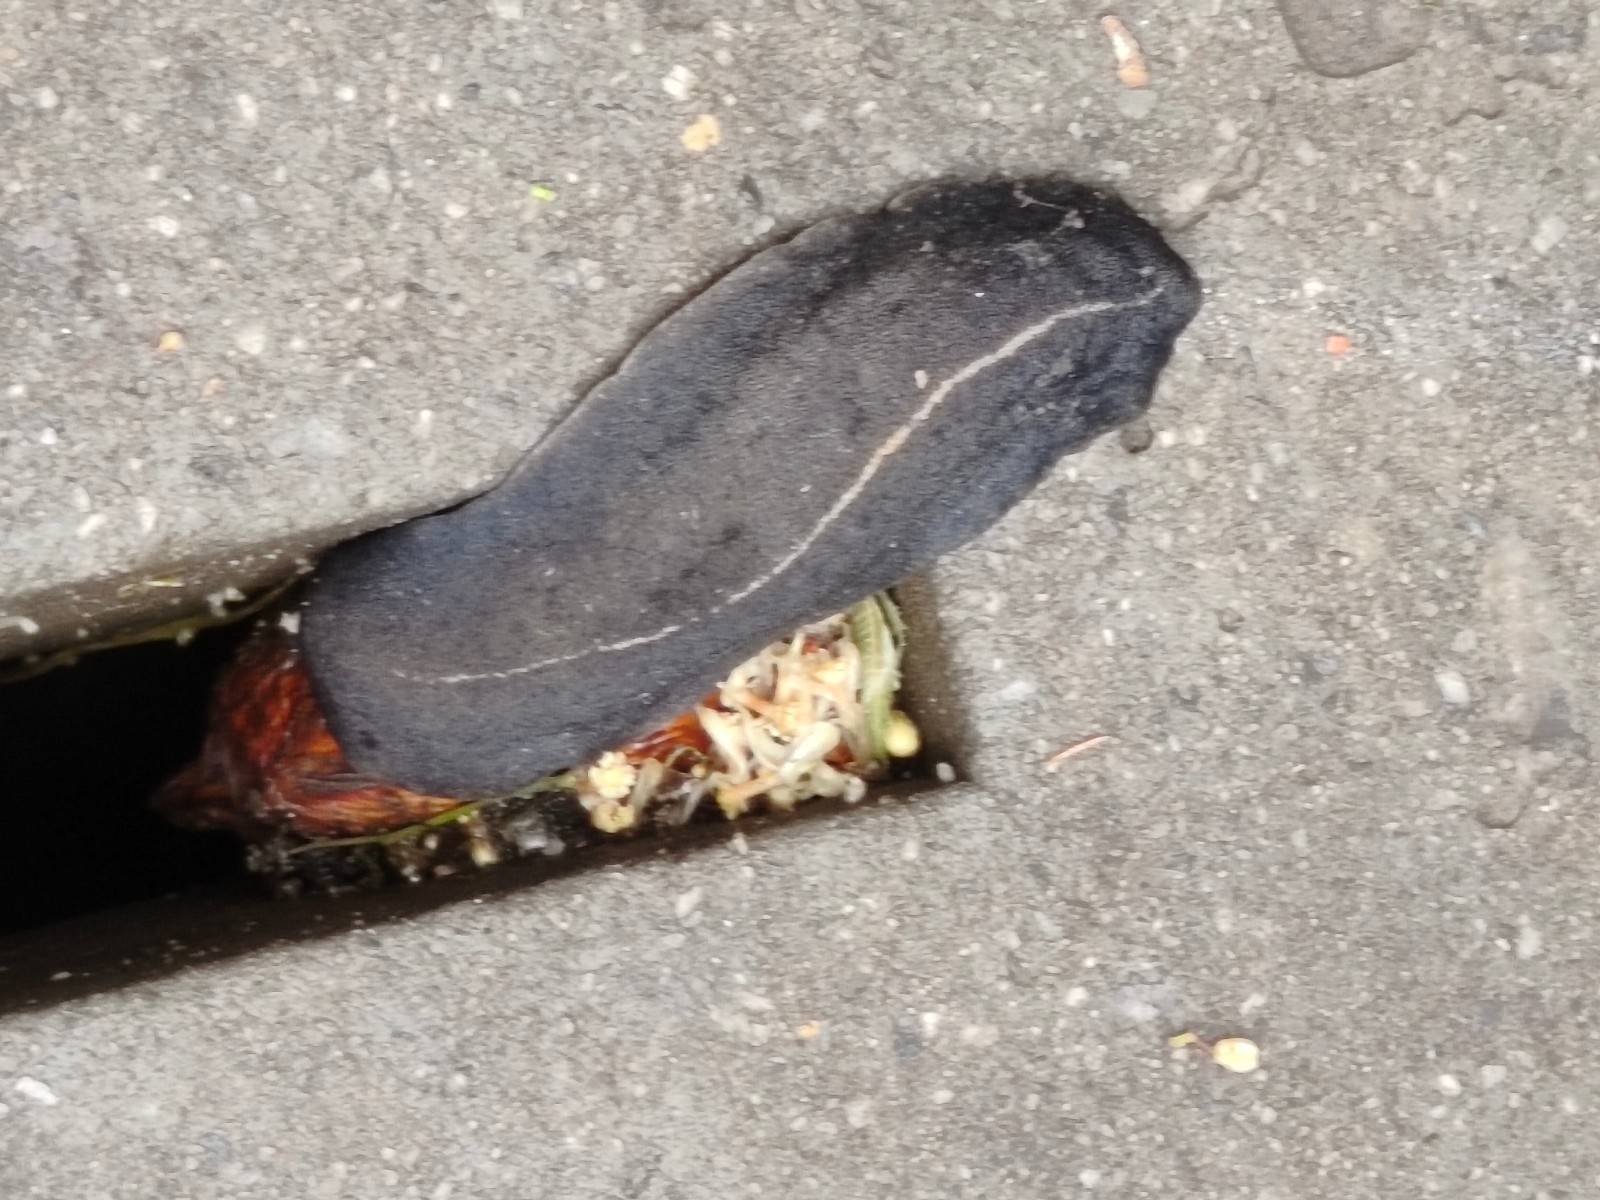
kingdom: Animalia
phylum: Mollusca
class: Gastropoda
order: Systellommatophora
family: Veronicellidae
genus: Laevicaulis
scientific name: Laevicaulis alte
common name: Tropical leatherleaf
